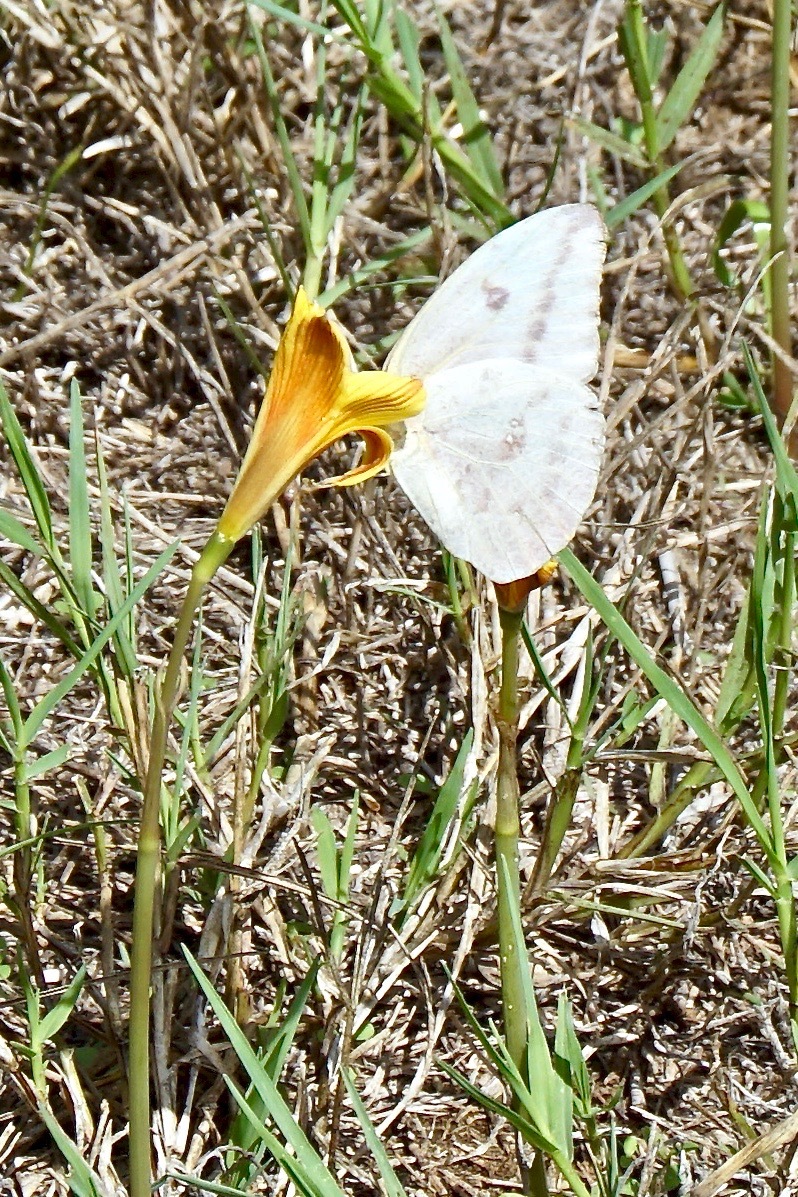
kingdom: Animalia
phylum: Arthropoda
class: Insecta
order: Lepidoptera
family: Pieridae
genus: Phoebis
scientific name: Phoebis agarithe
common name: Large orange sulphur
